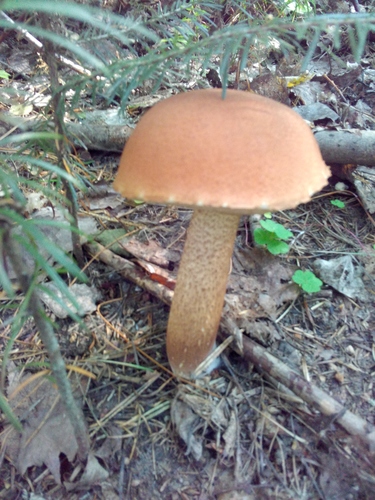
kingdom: Fungi
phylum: Basidiomycota
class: Agaricomycetes
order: Boletales
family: Boletaceae
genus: Leccinum
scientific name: Leccinum aurantiacum
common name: Orange bolete
